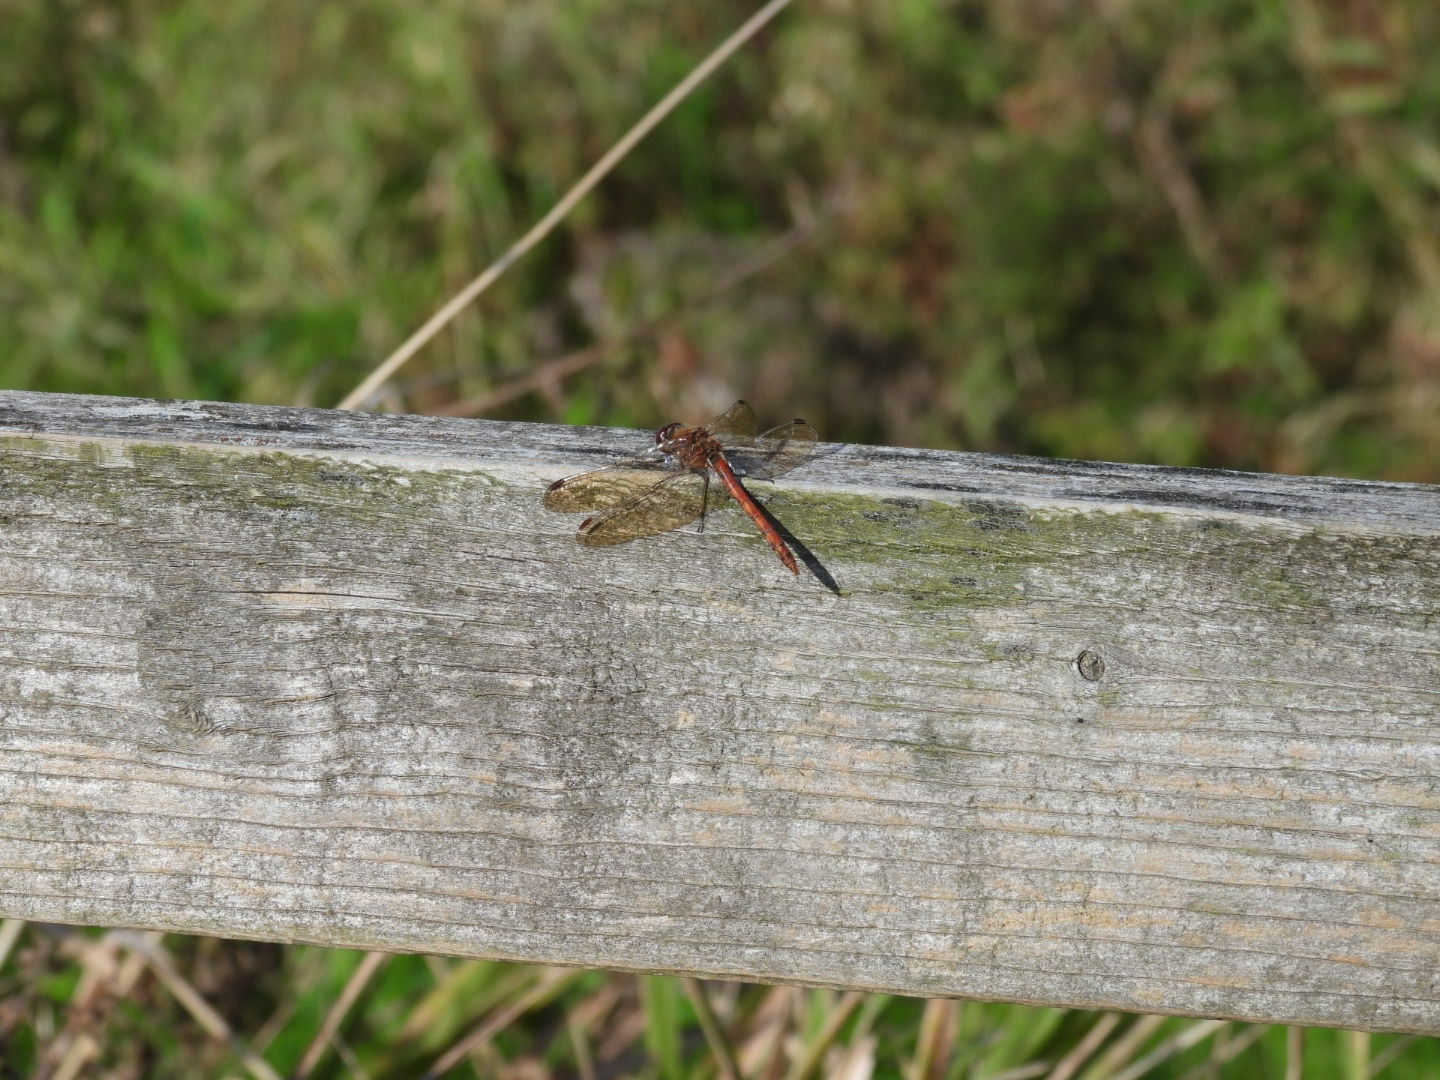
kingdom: Animalia
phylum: Arthropoda
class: Insecta
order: Odonata
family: Libellulidae
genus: Sympetrum
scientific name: Sympetrum striolatum
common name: Common darter
